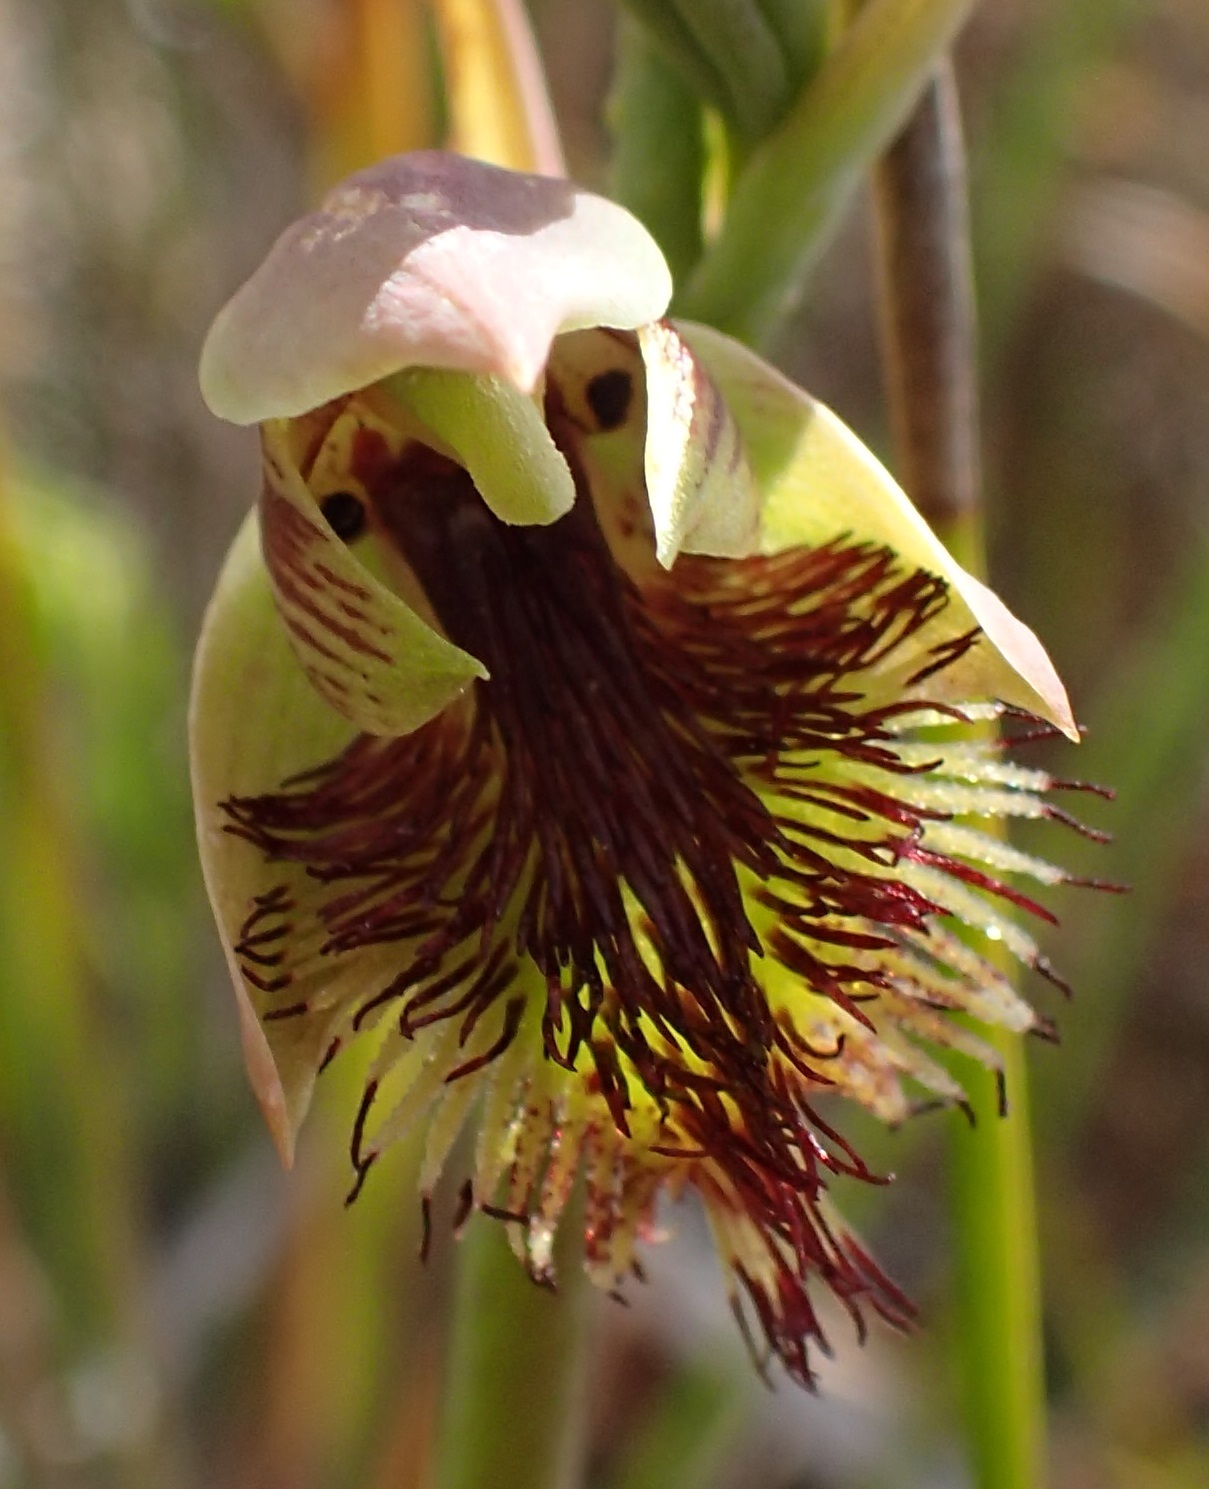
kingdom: Plantae
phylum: Tracheophyta
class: Liliopsida
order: Asparagales
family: Orchidaceae
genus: Calochilus
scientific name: Calochilus herbaceus
